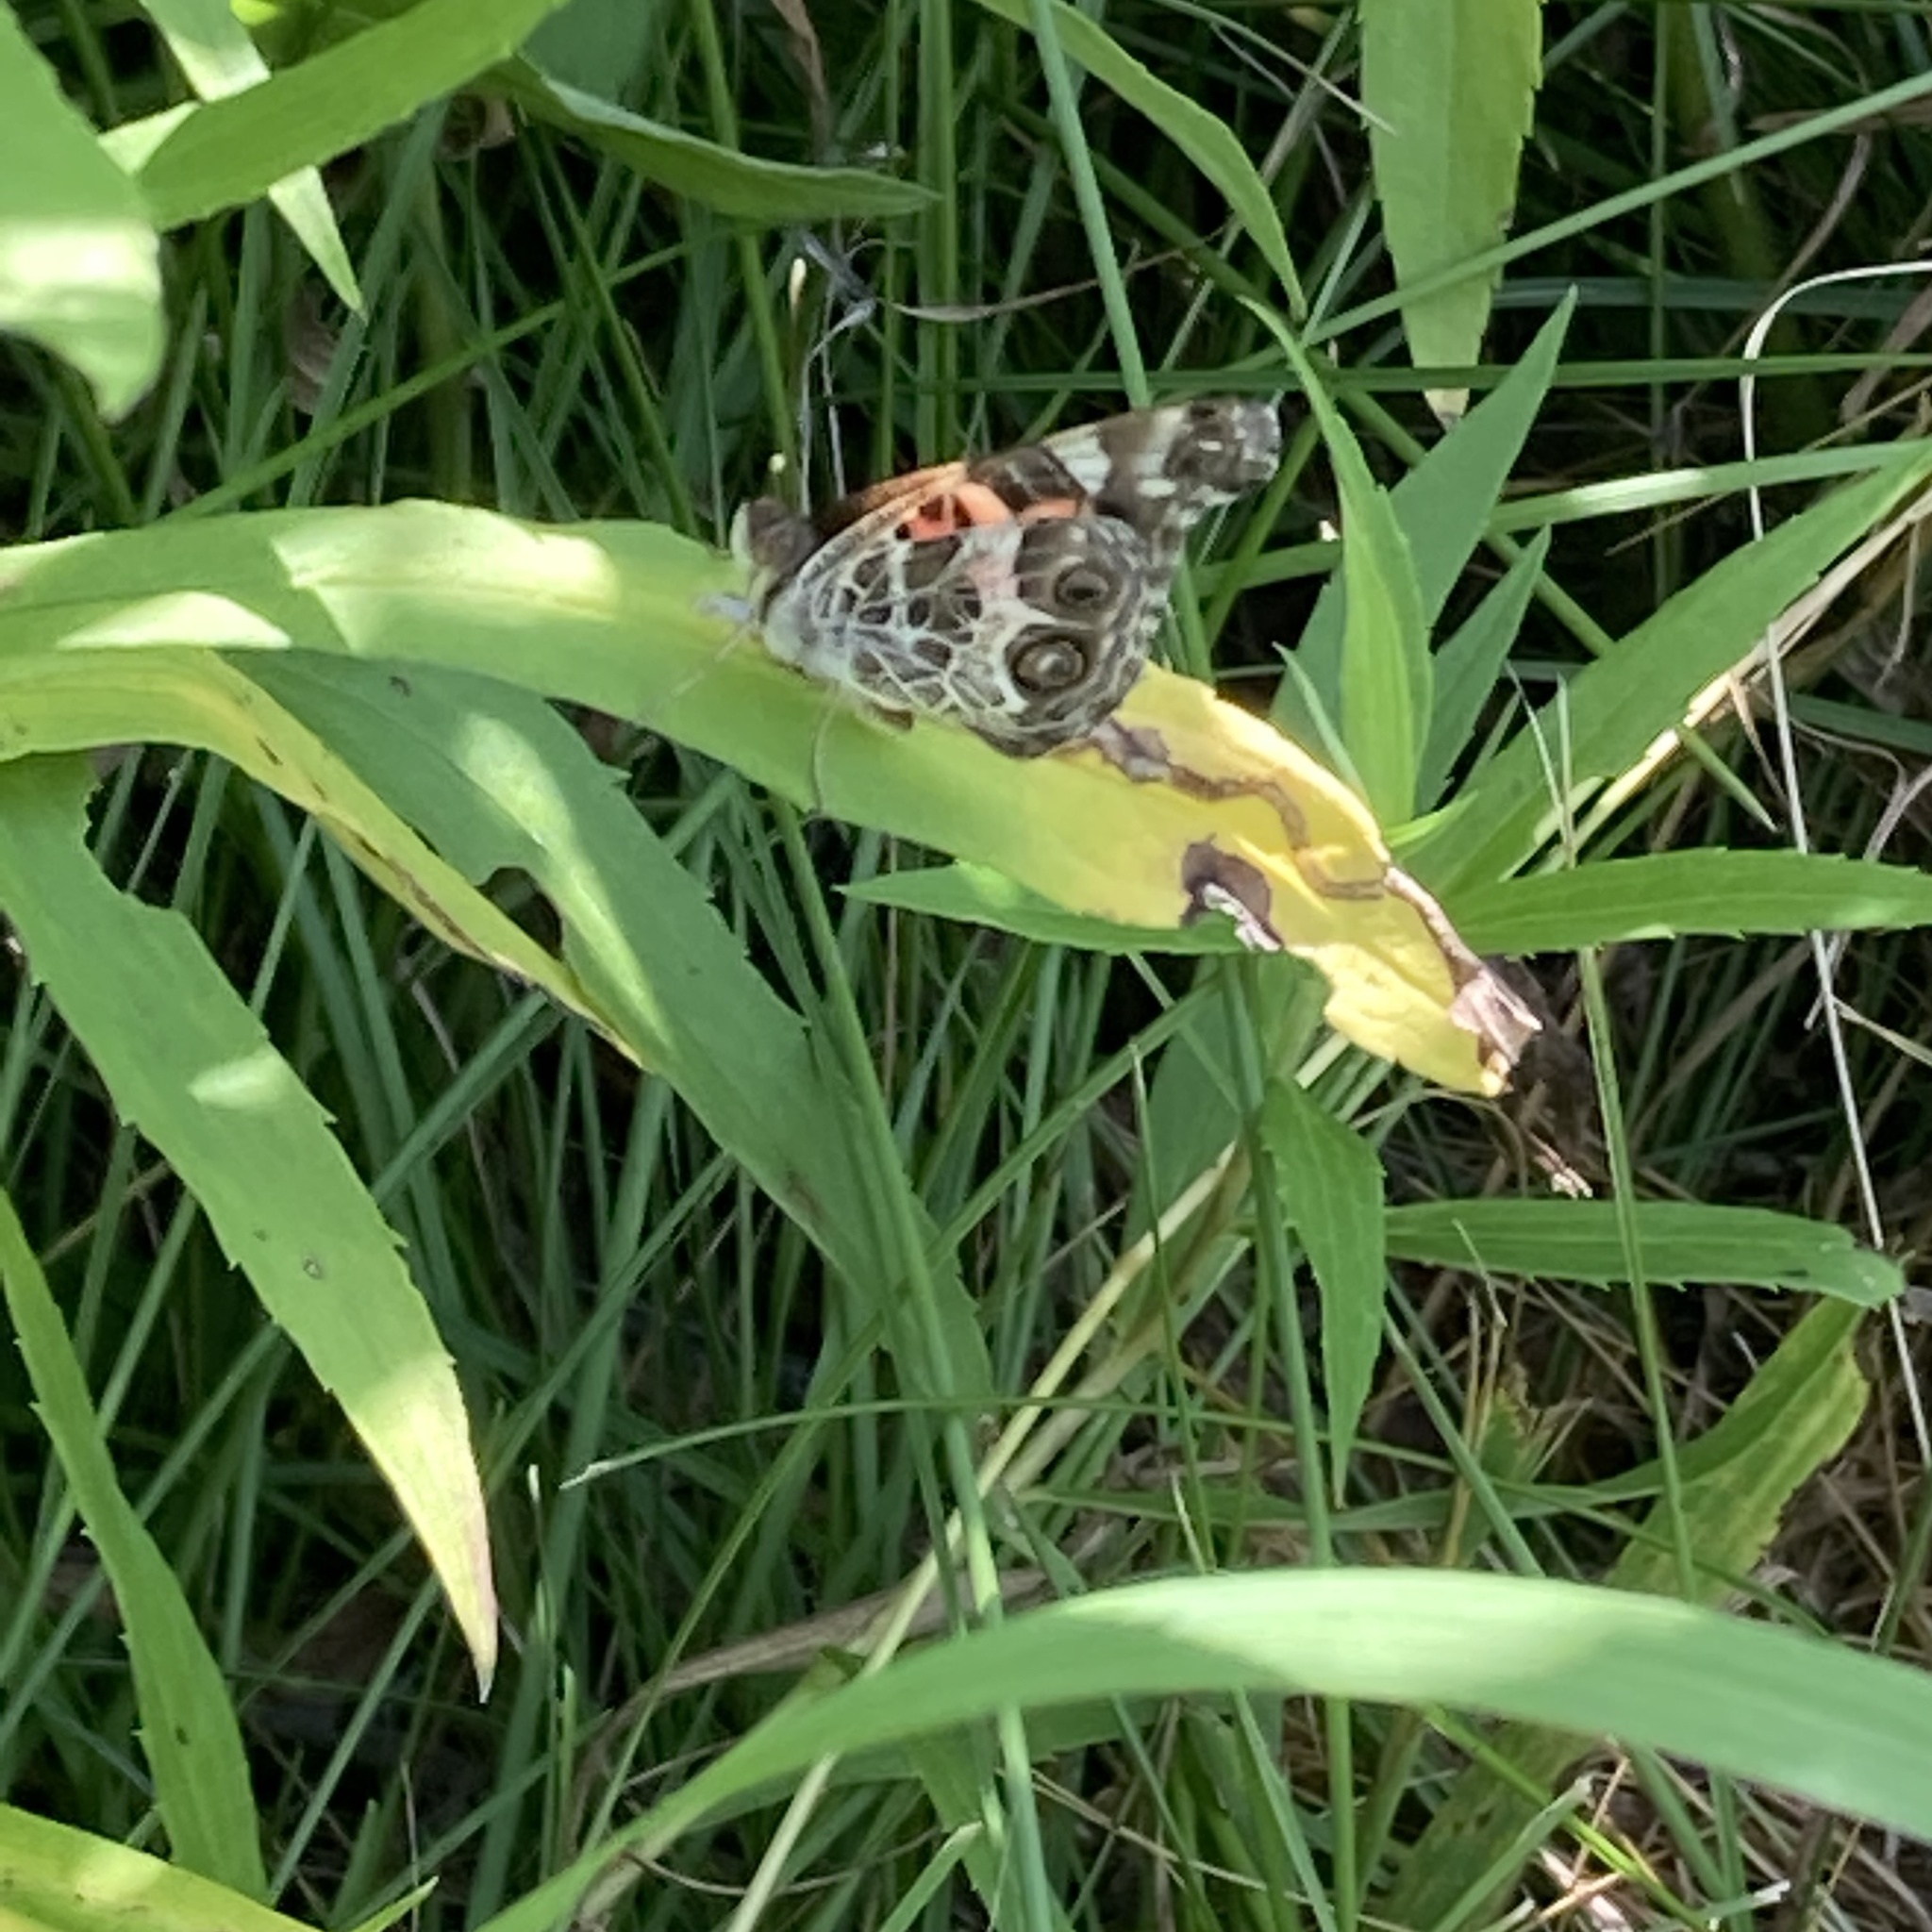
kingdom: Animalia
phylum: Arthropoda
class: Insecta
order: Lepidoptera
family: Nymphalidae
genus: Vanessa
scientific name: Vanessa virginiensis
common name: American lady
